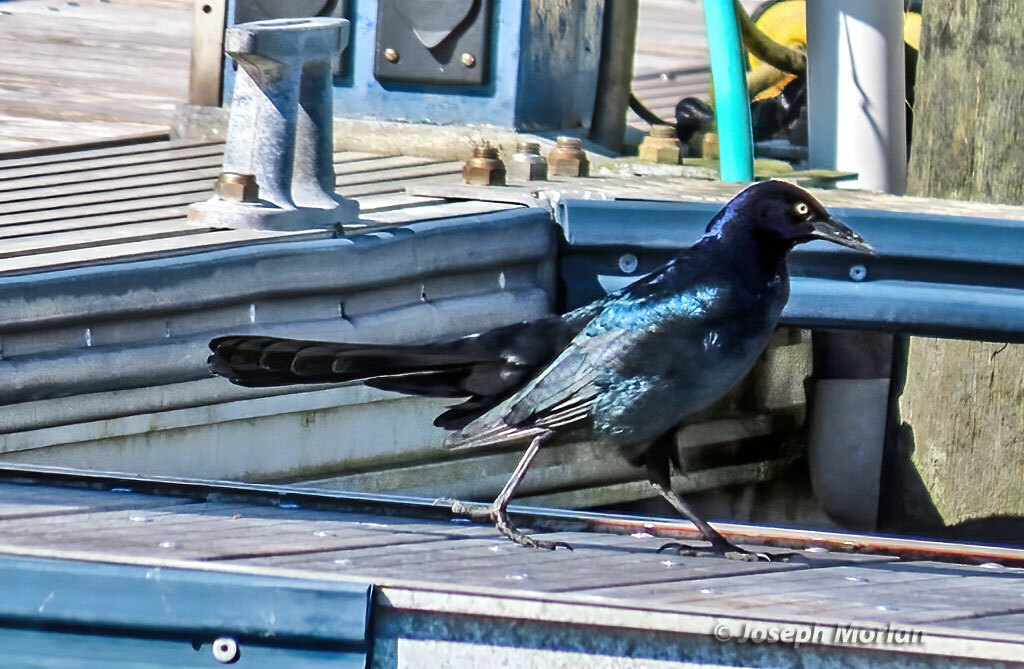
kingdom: Animalia
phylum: Chordata
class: Aves
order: Passeriformes
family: Icteridae
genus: Quiscalus
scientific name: Quiscalus major
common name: Boat-tailed grackle
